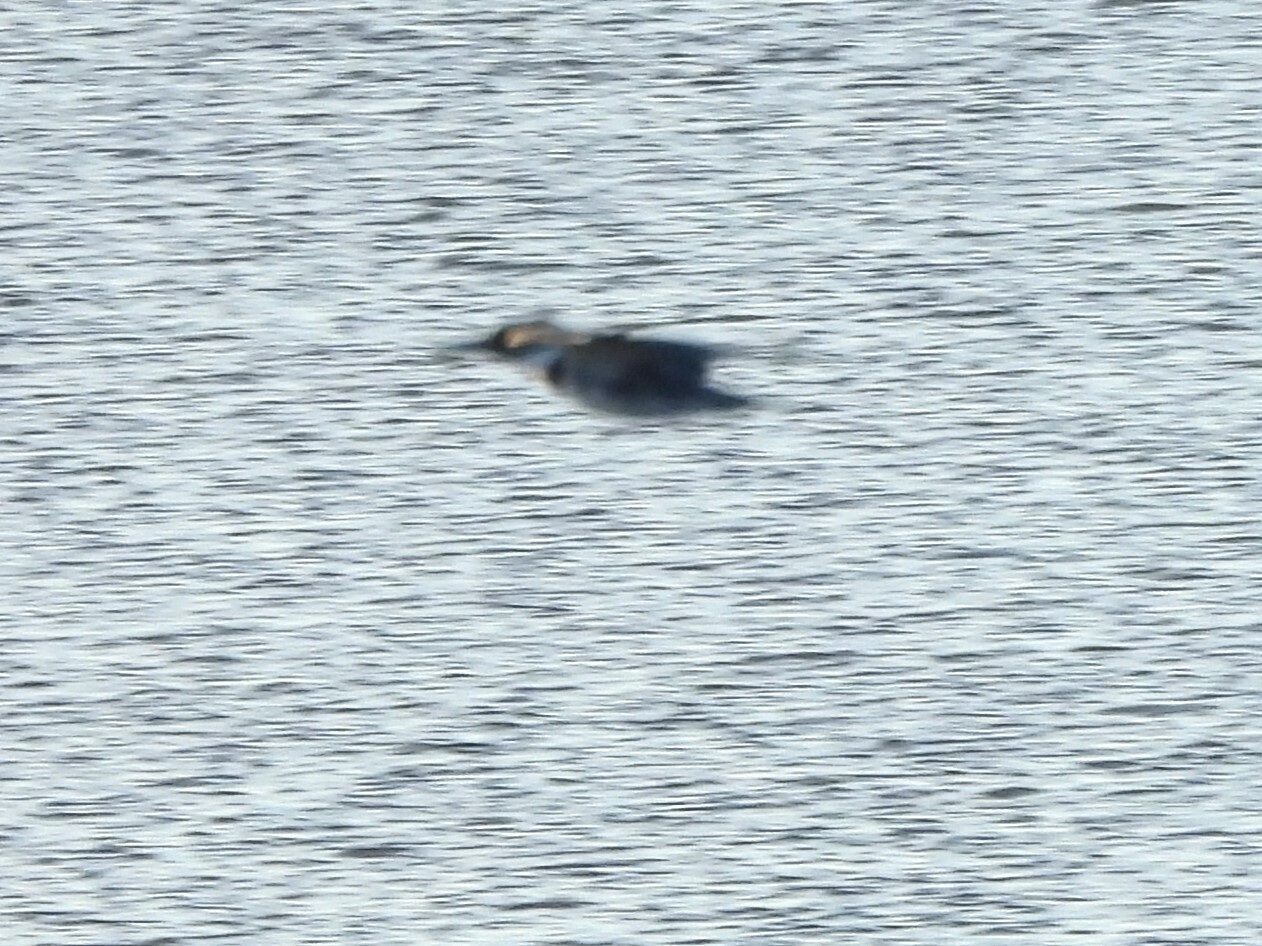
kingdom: Animalia
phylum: Chordata
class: Aves
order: Coraciiformes
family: Alcedinidae
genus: Megaceryle
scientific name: Megaceryle alcyon
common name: Belted kingfisher
